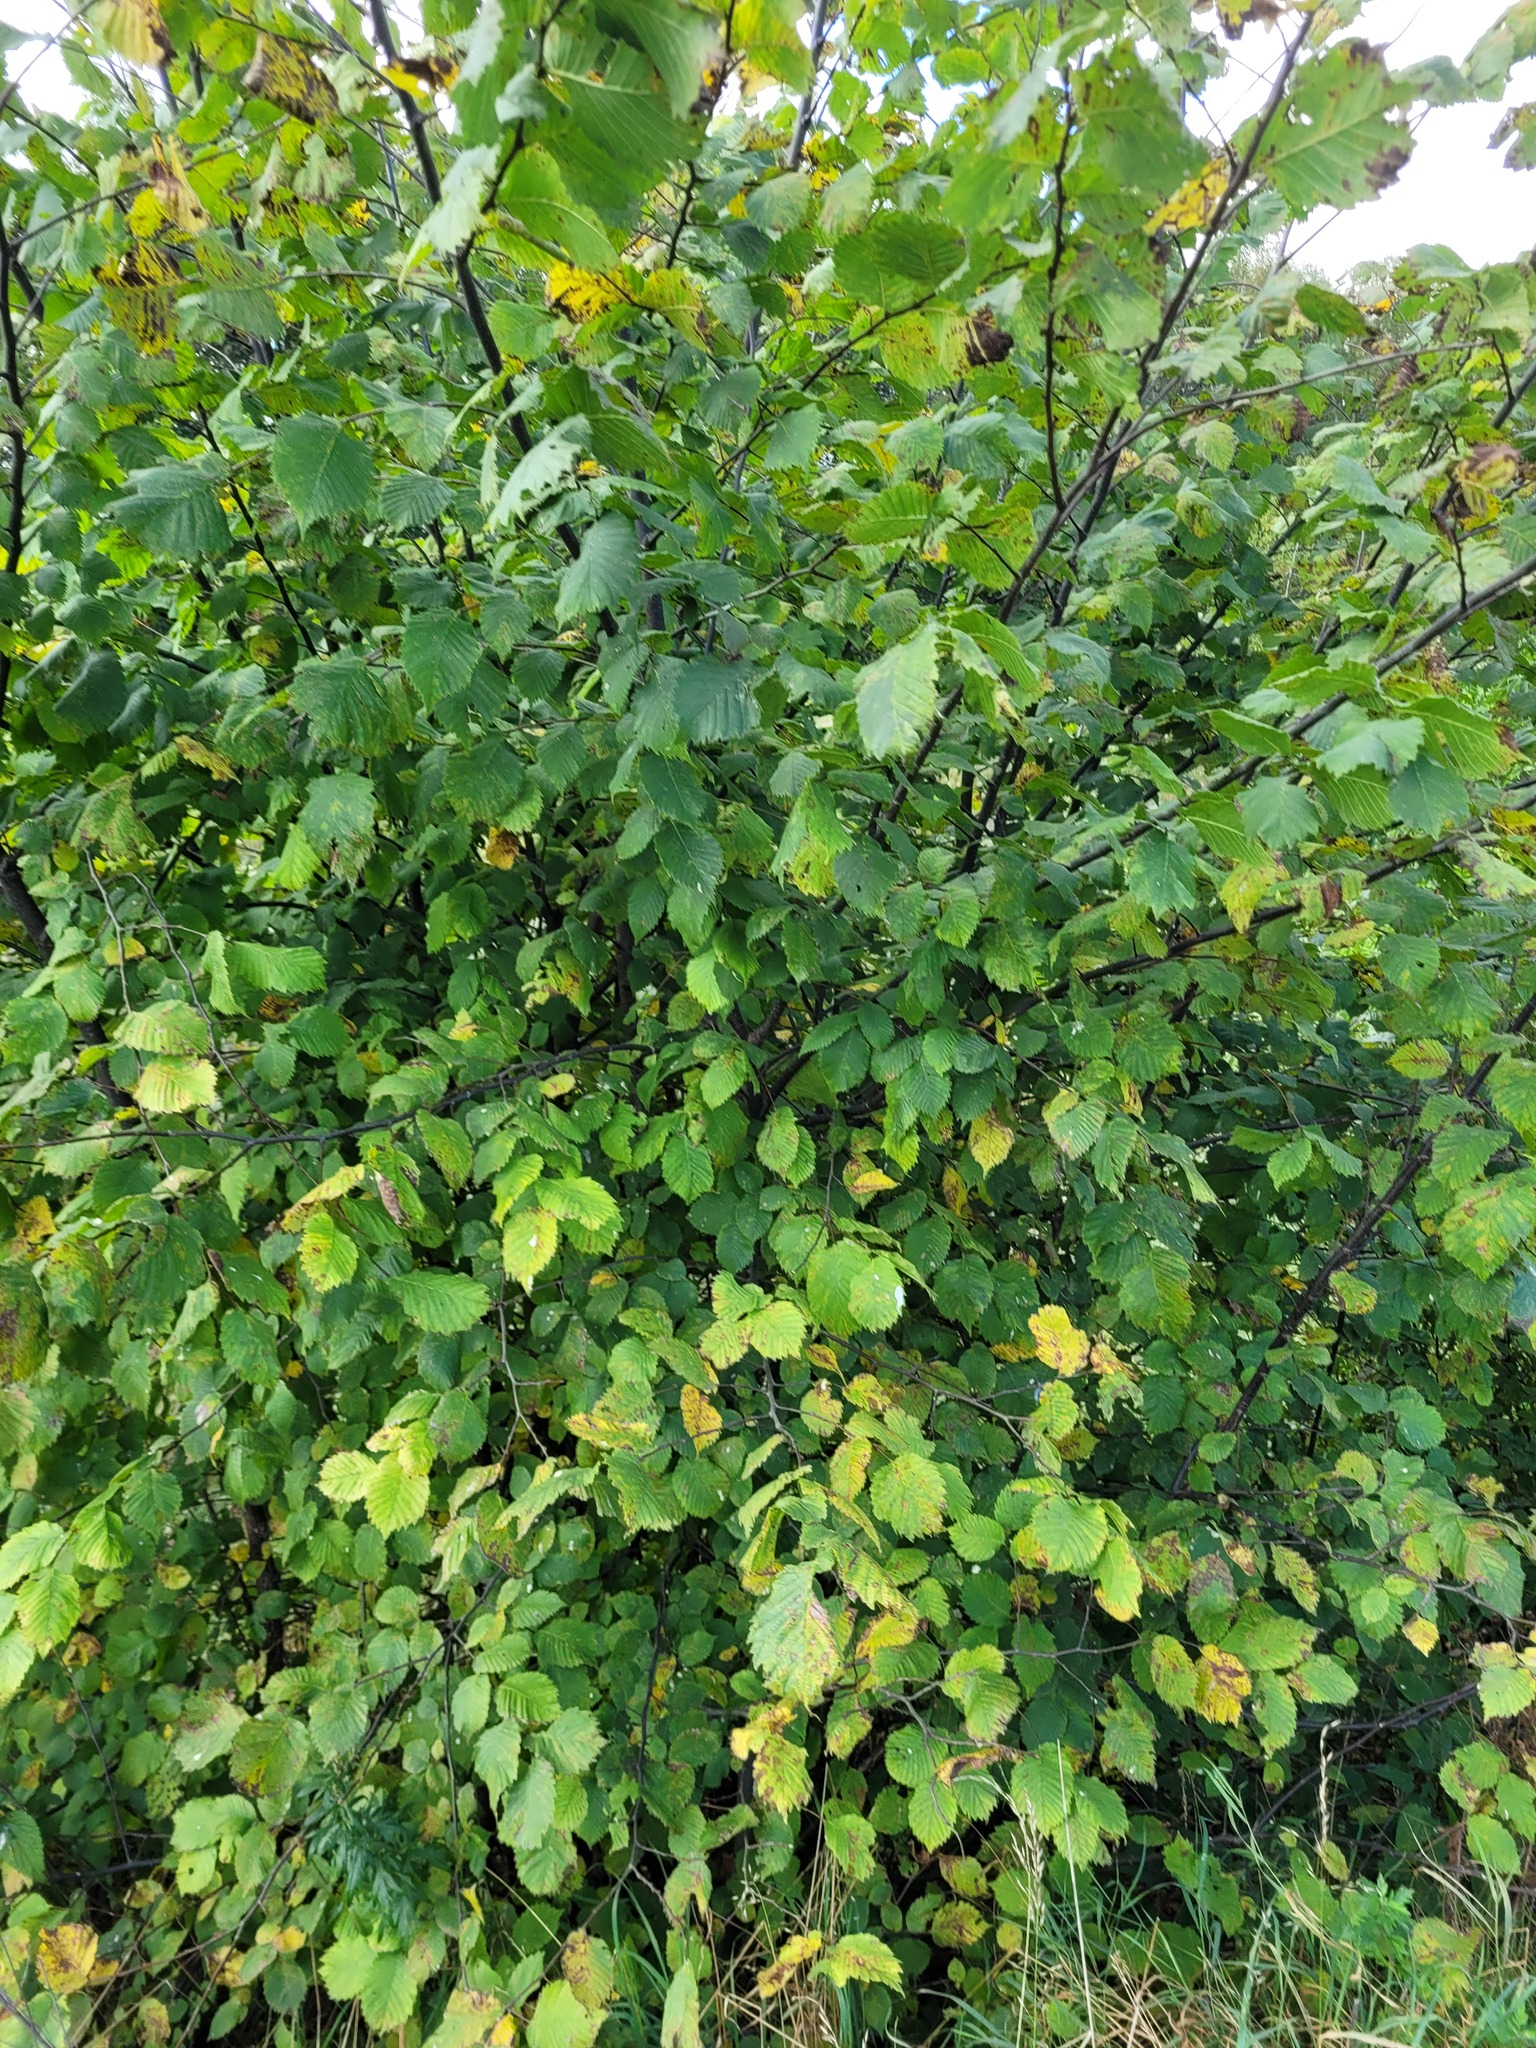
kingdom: Plantae
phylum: Tracheophyta
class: Magnoliopsida
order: Fagales
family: Betulaceae
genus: Corylus
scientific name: Corylus avellana
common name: European hazel
